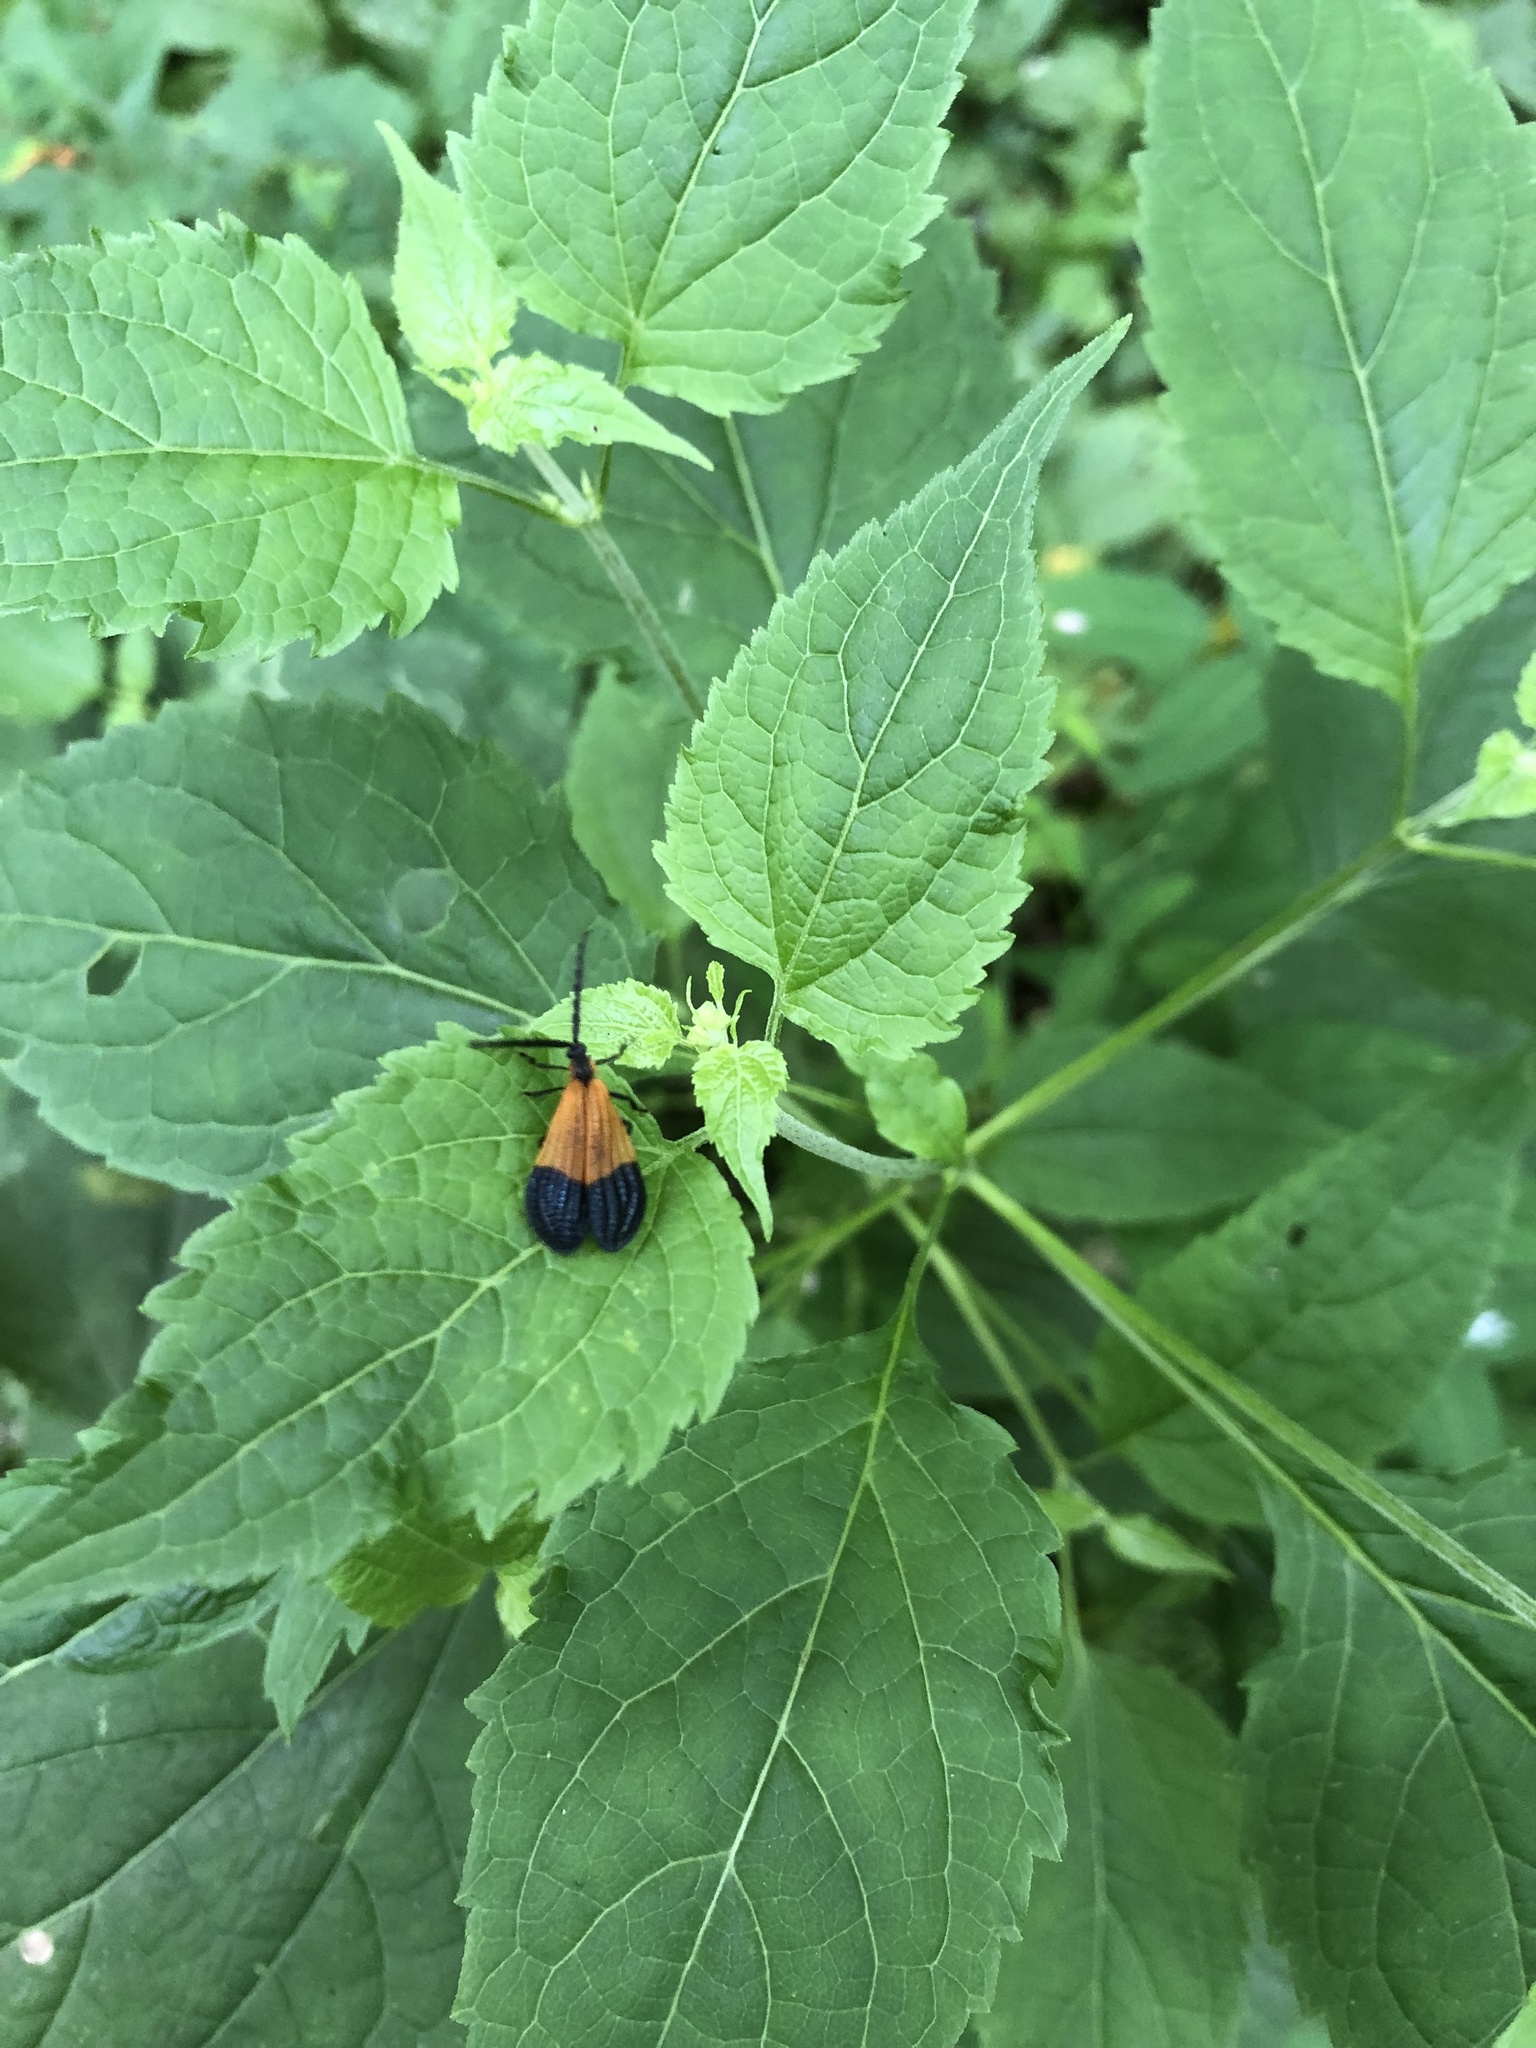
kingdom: Animalia
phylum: Arthropoda
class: Insecta
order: Coleoptera
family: Lycidae
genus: Calopteron
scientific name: Calopteron terminale
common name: End band net-winged beetle
